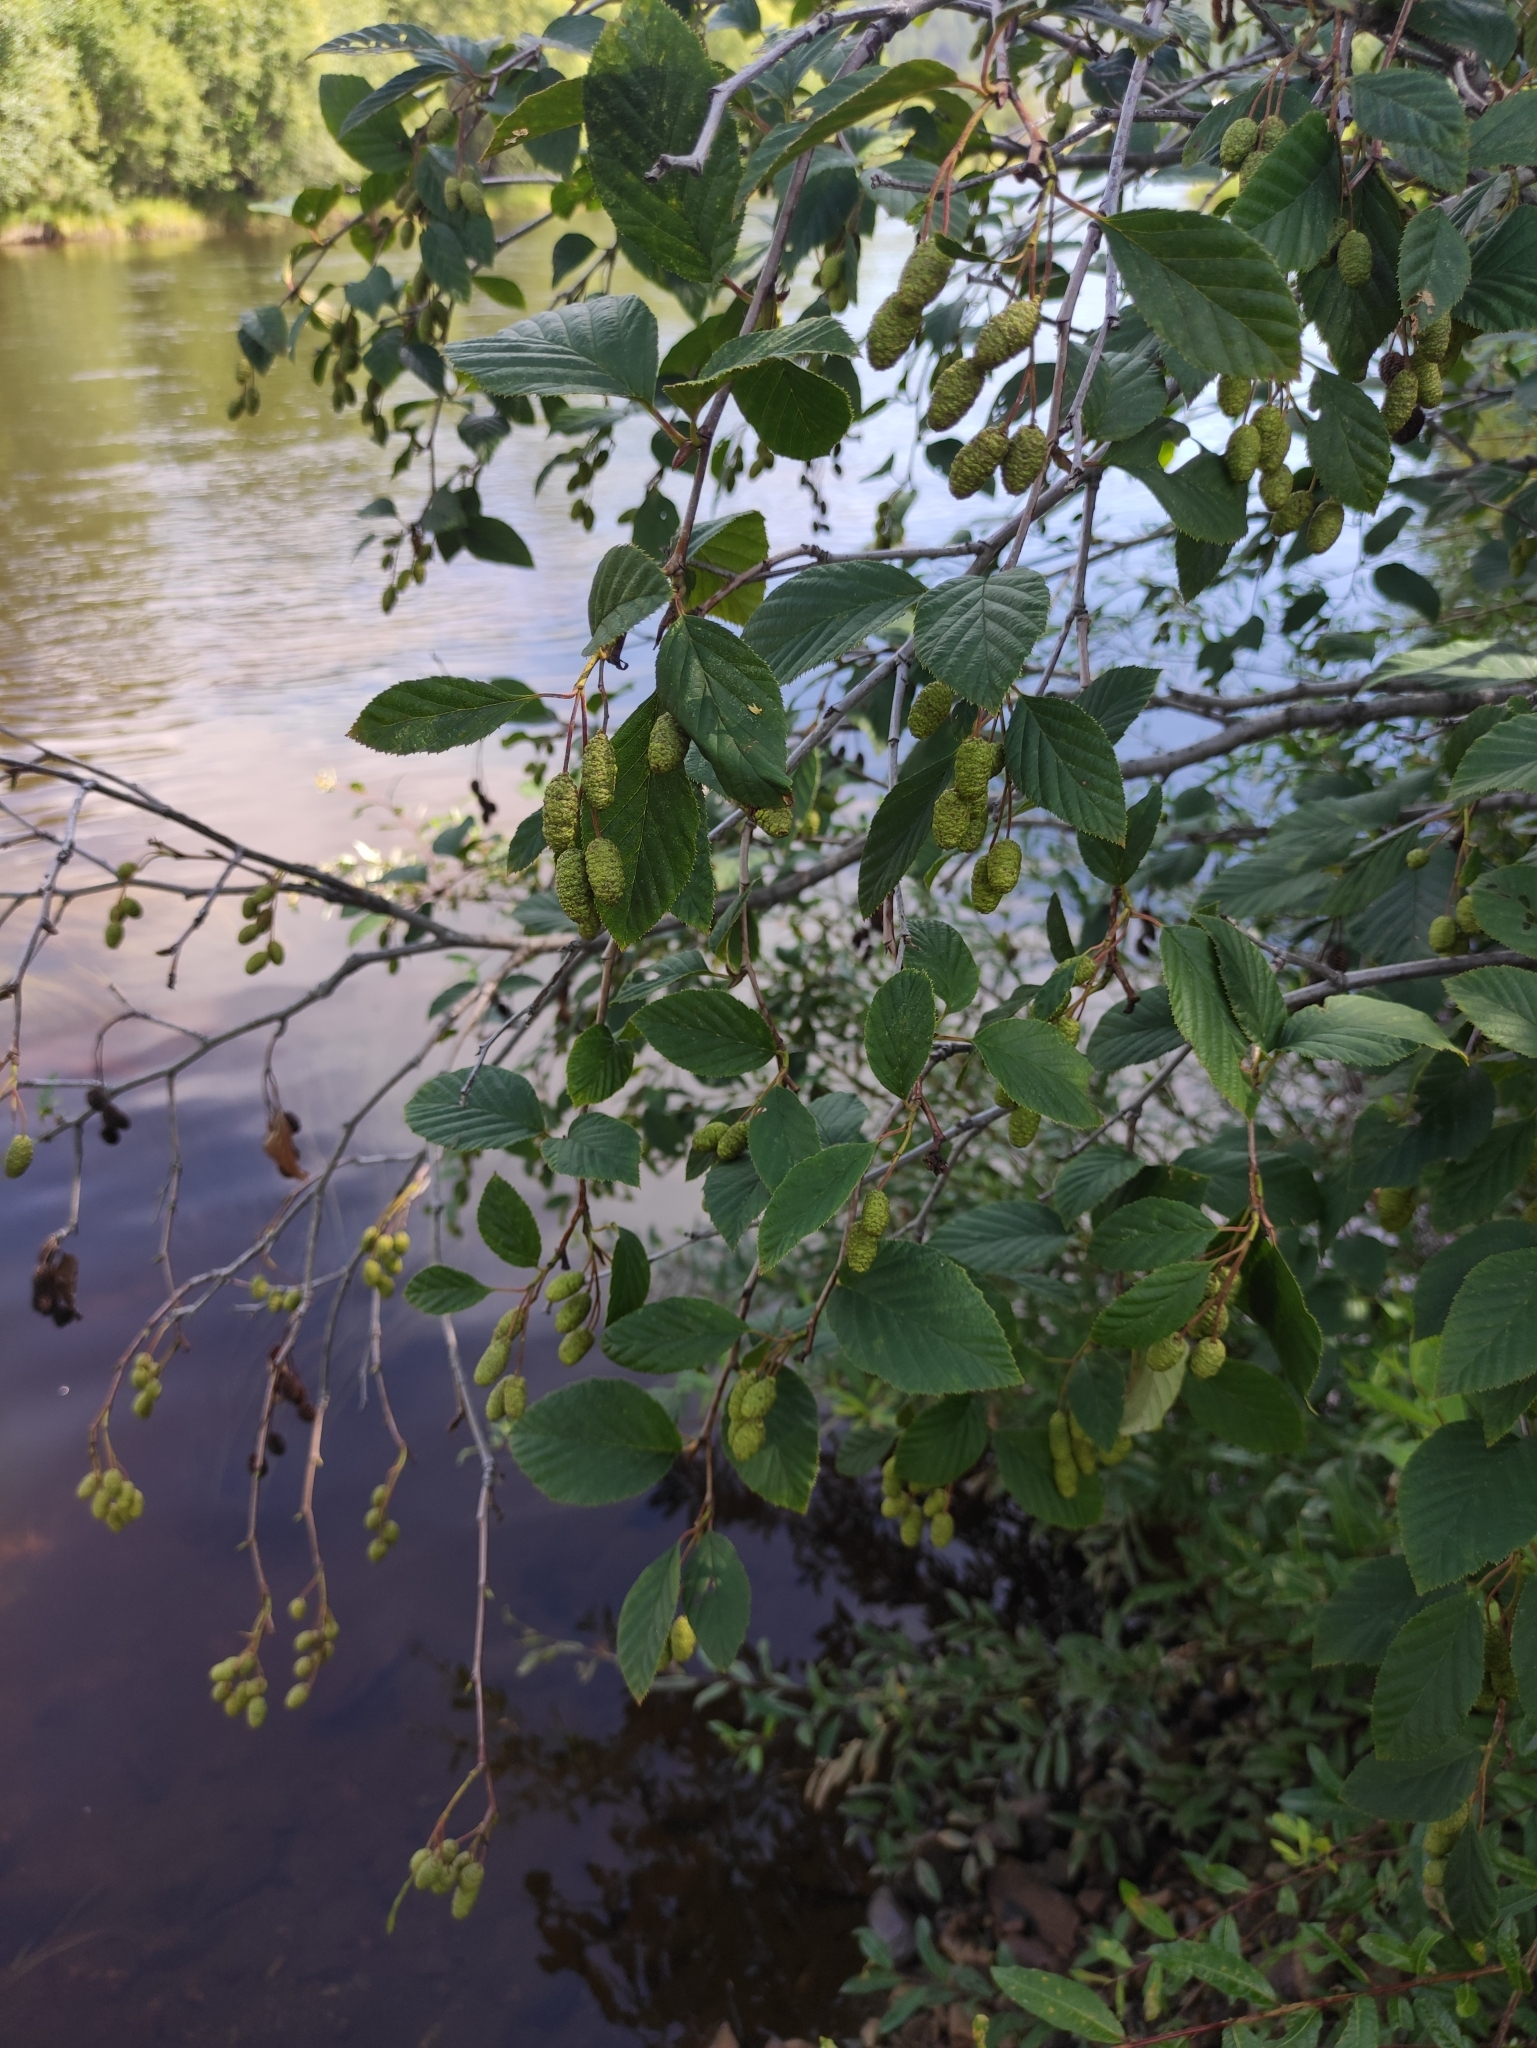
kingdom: Plantae
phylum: Tracheophyta
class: Magnoliopsida
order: Fagales
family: Betulaceae
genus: Alnus
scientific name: Alnus alnobetula
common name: Green alder
